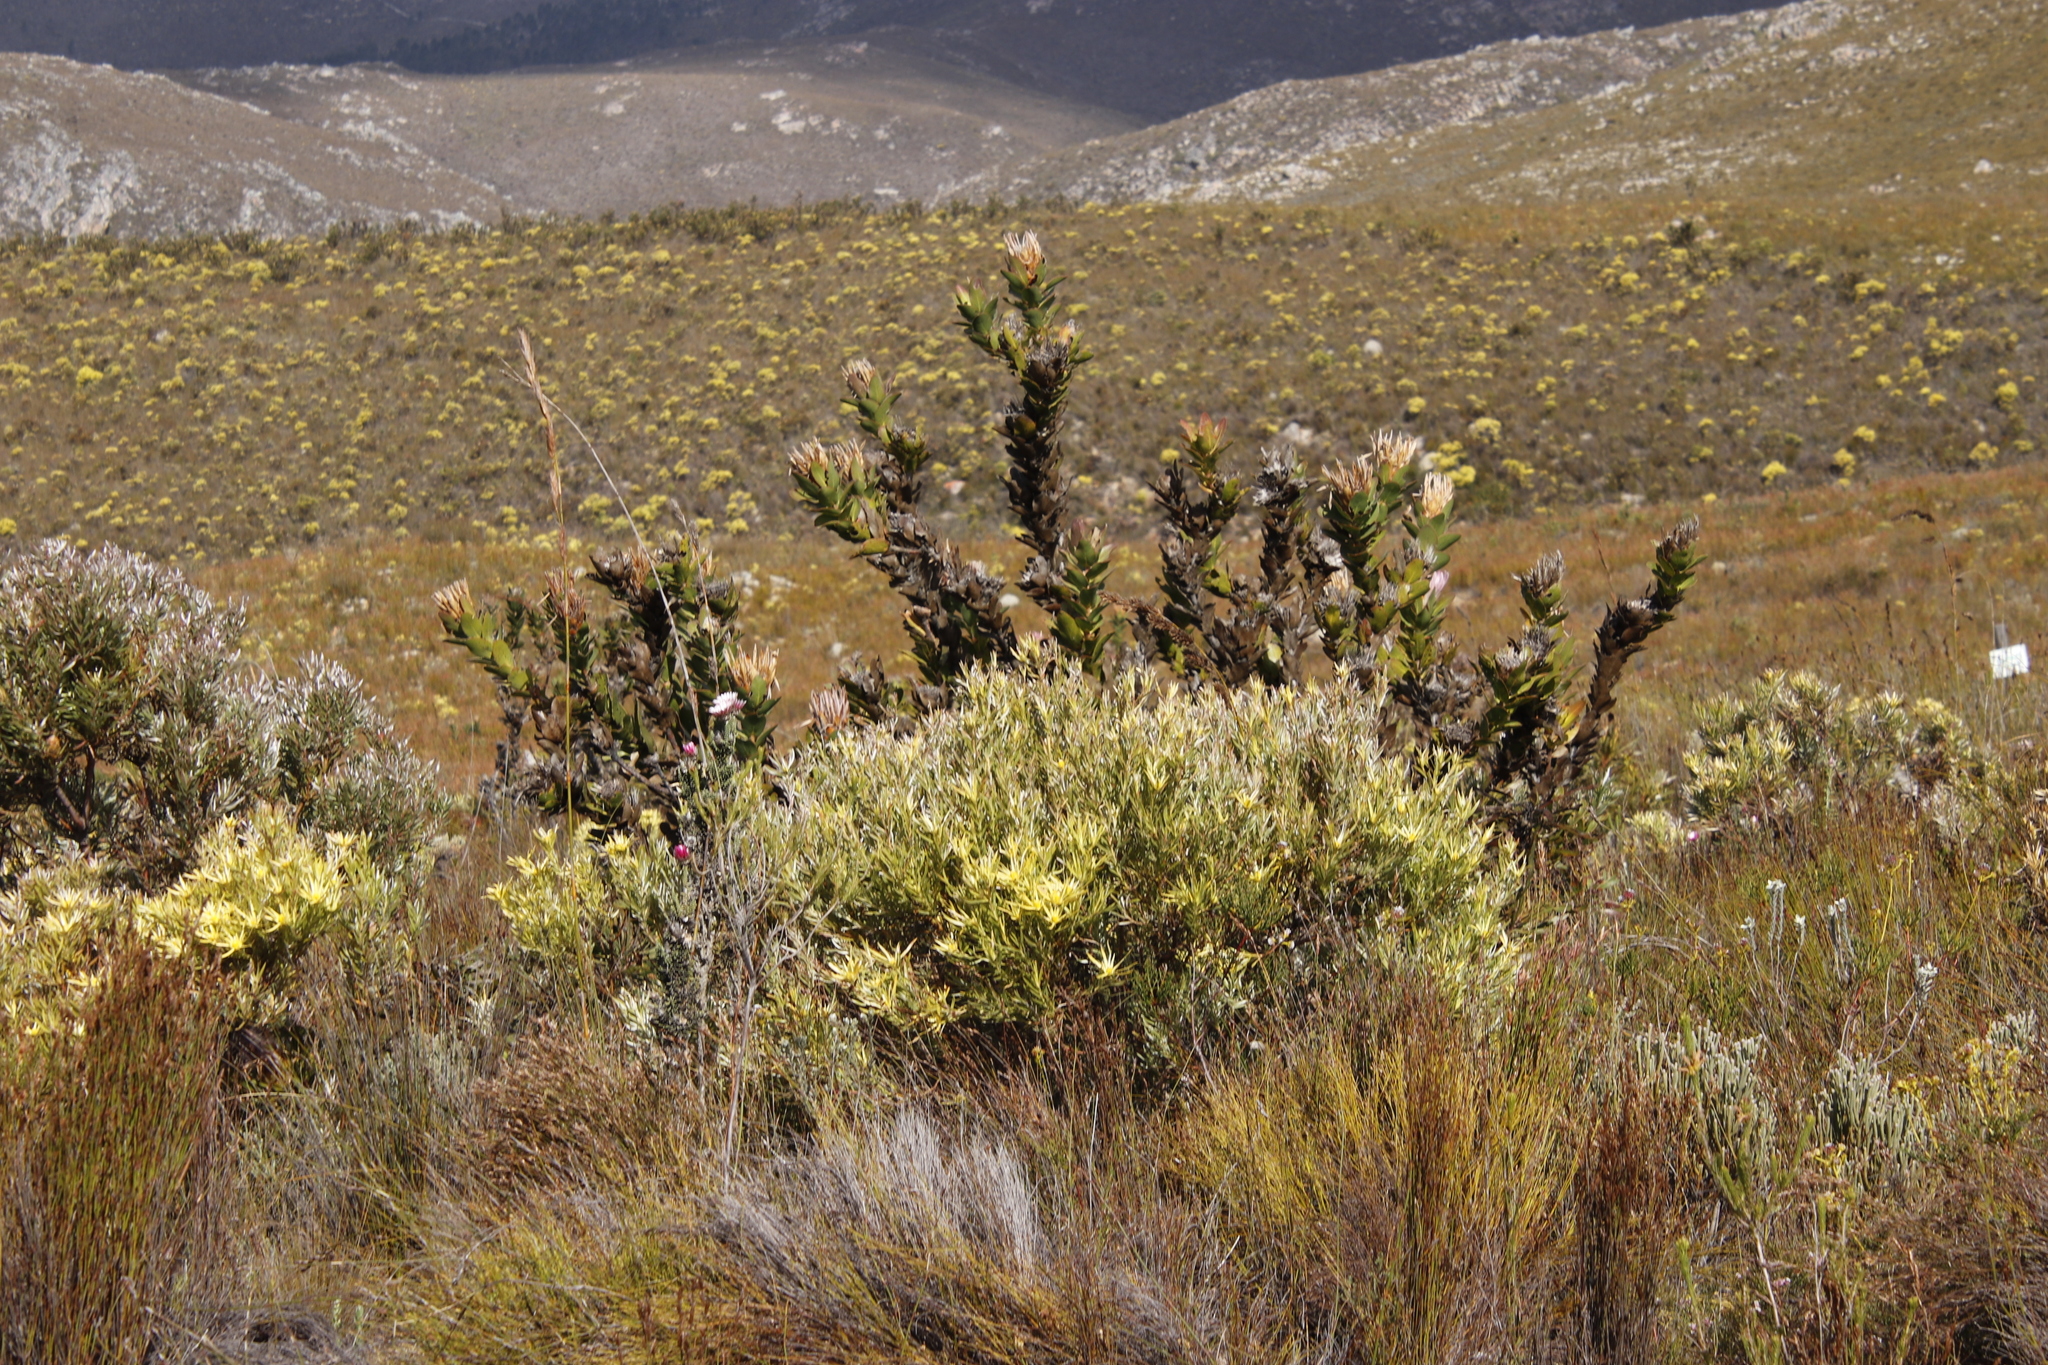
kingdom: Plantae
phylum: Tracheophyta
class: Magnoliopsida
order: Proteales
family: Proteaceae
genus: Leucadendron
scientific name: Leucadendron xanthoconus
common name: Sickle-leaf conebush
